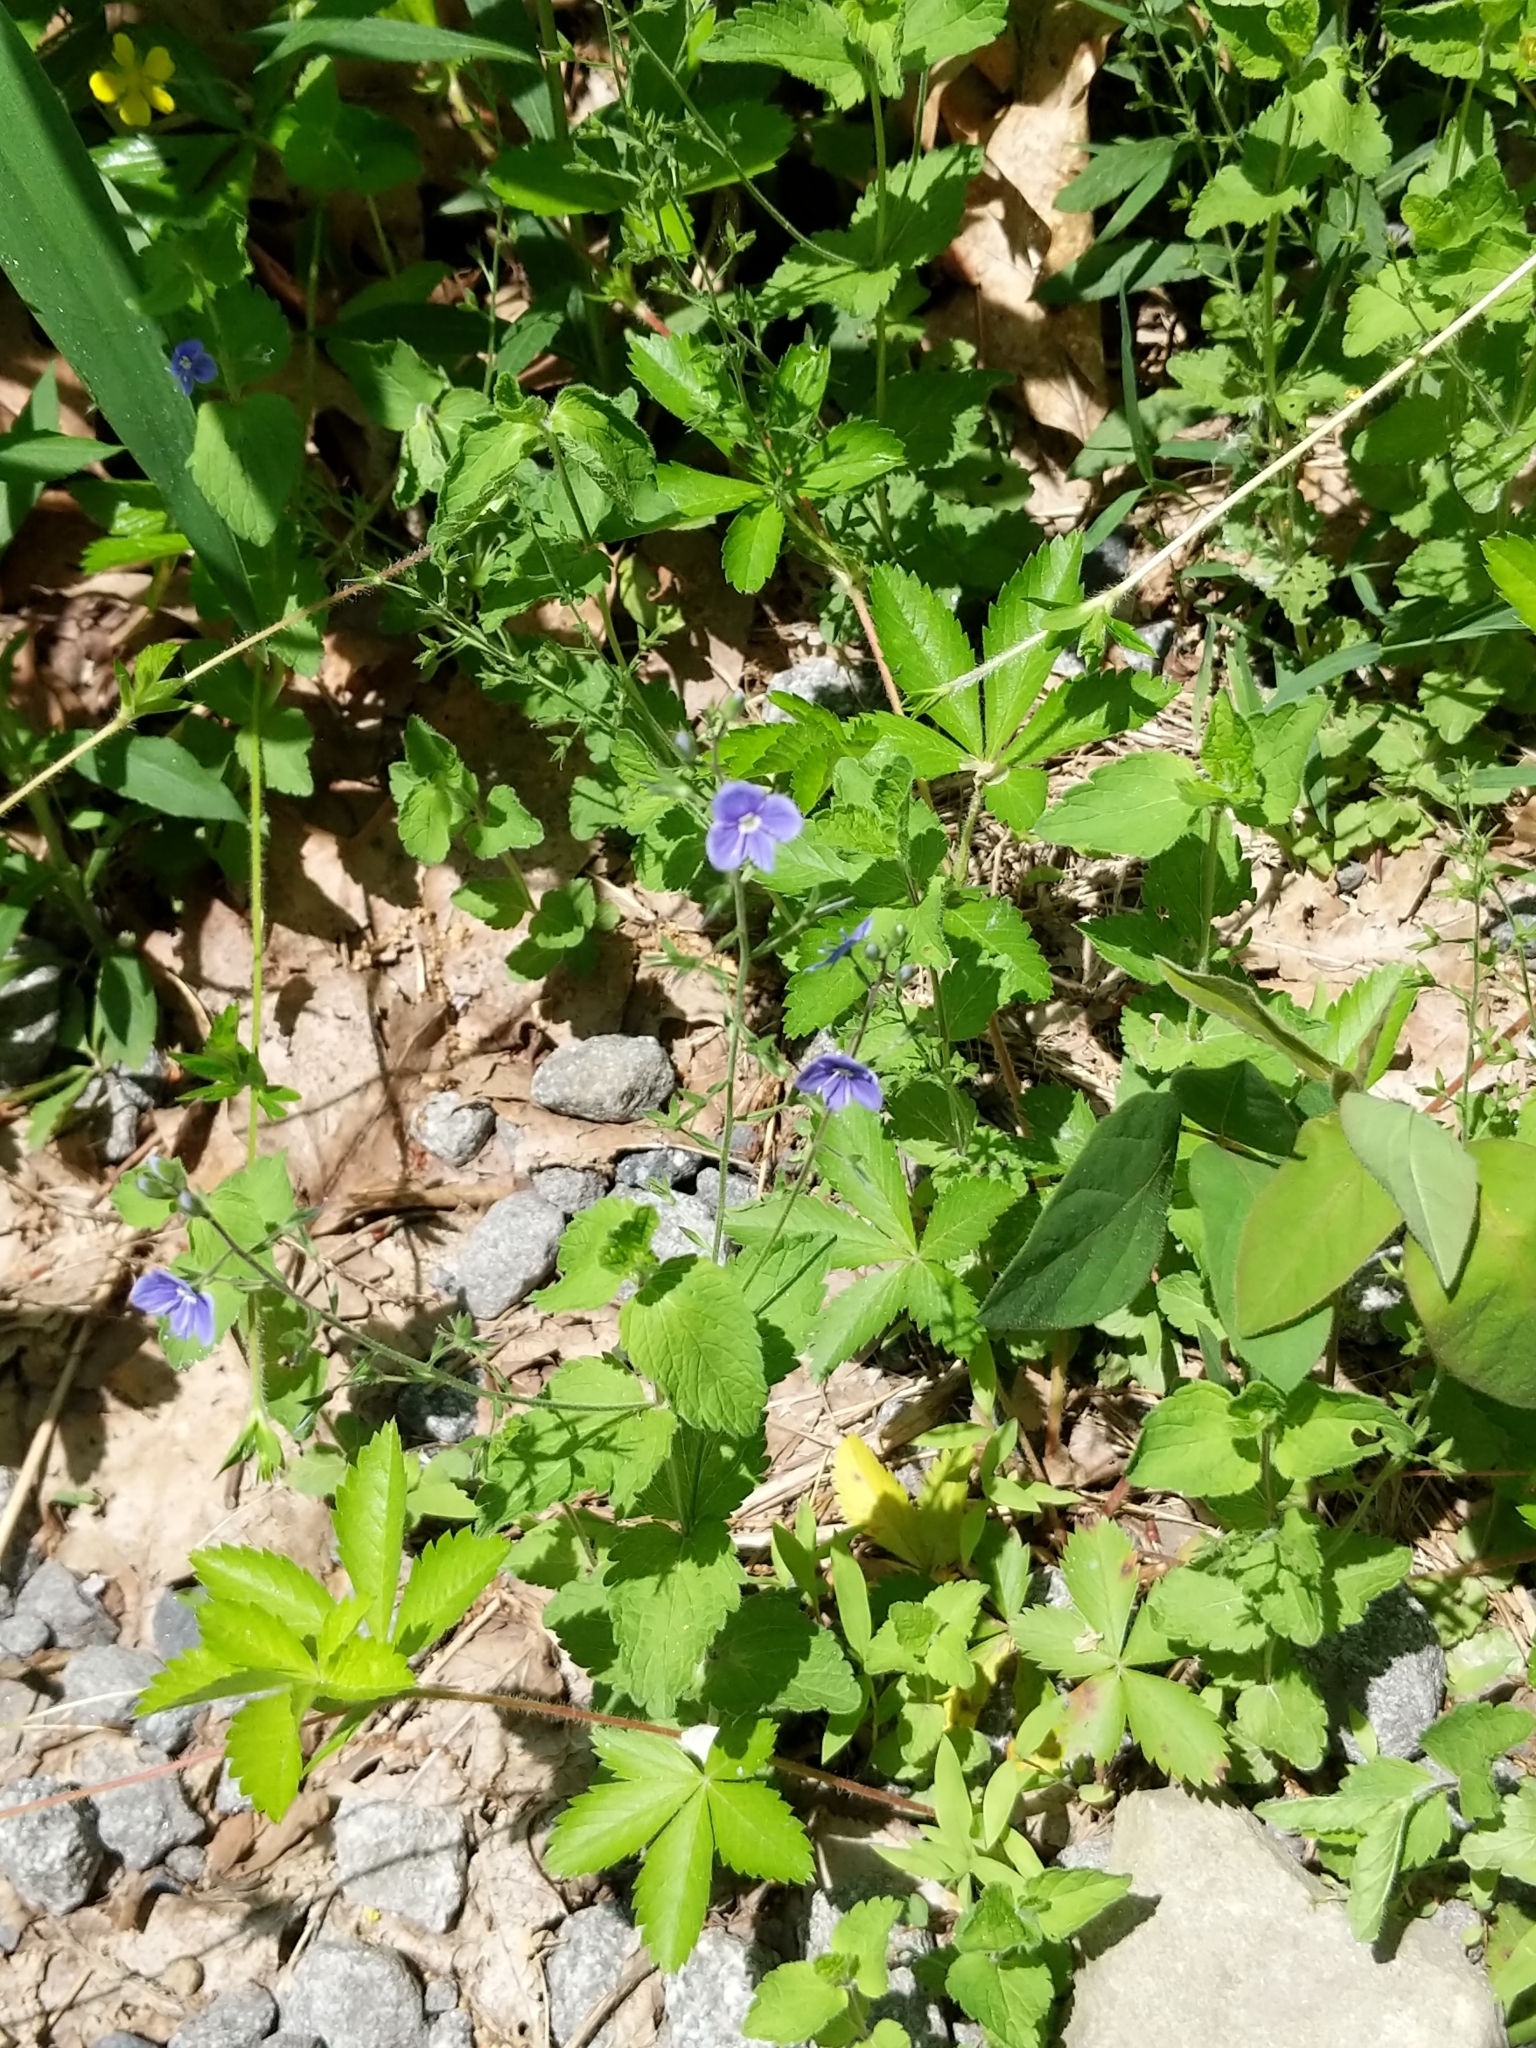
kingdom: Plantae
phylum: Tracheophyta
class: Magnoliopsida
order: Lamiales
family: Plantaginaceae
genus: Veronica
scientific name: Veronica chamaedrys
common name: Germander speedwell
